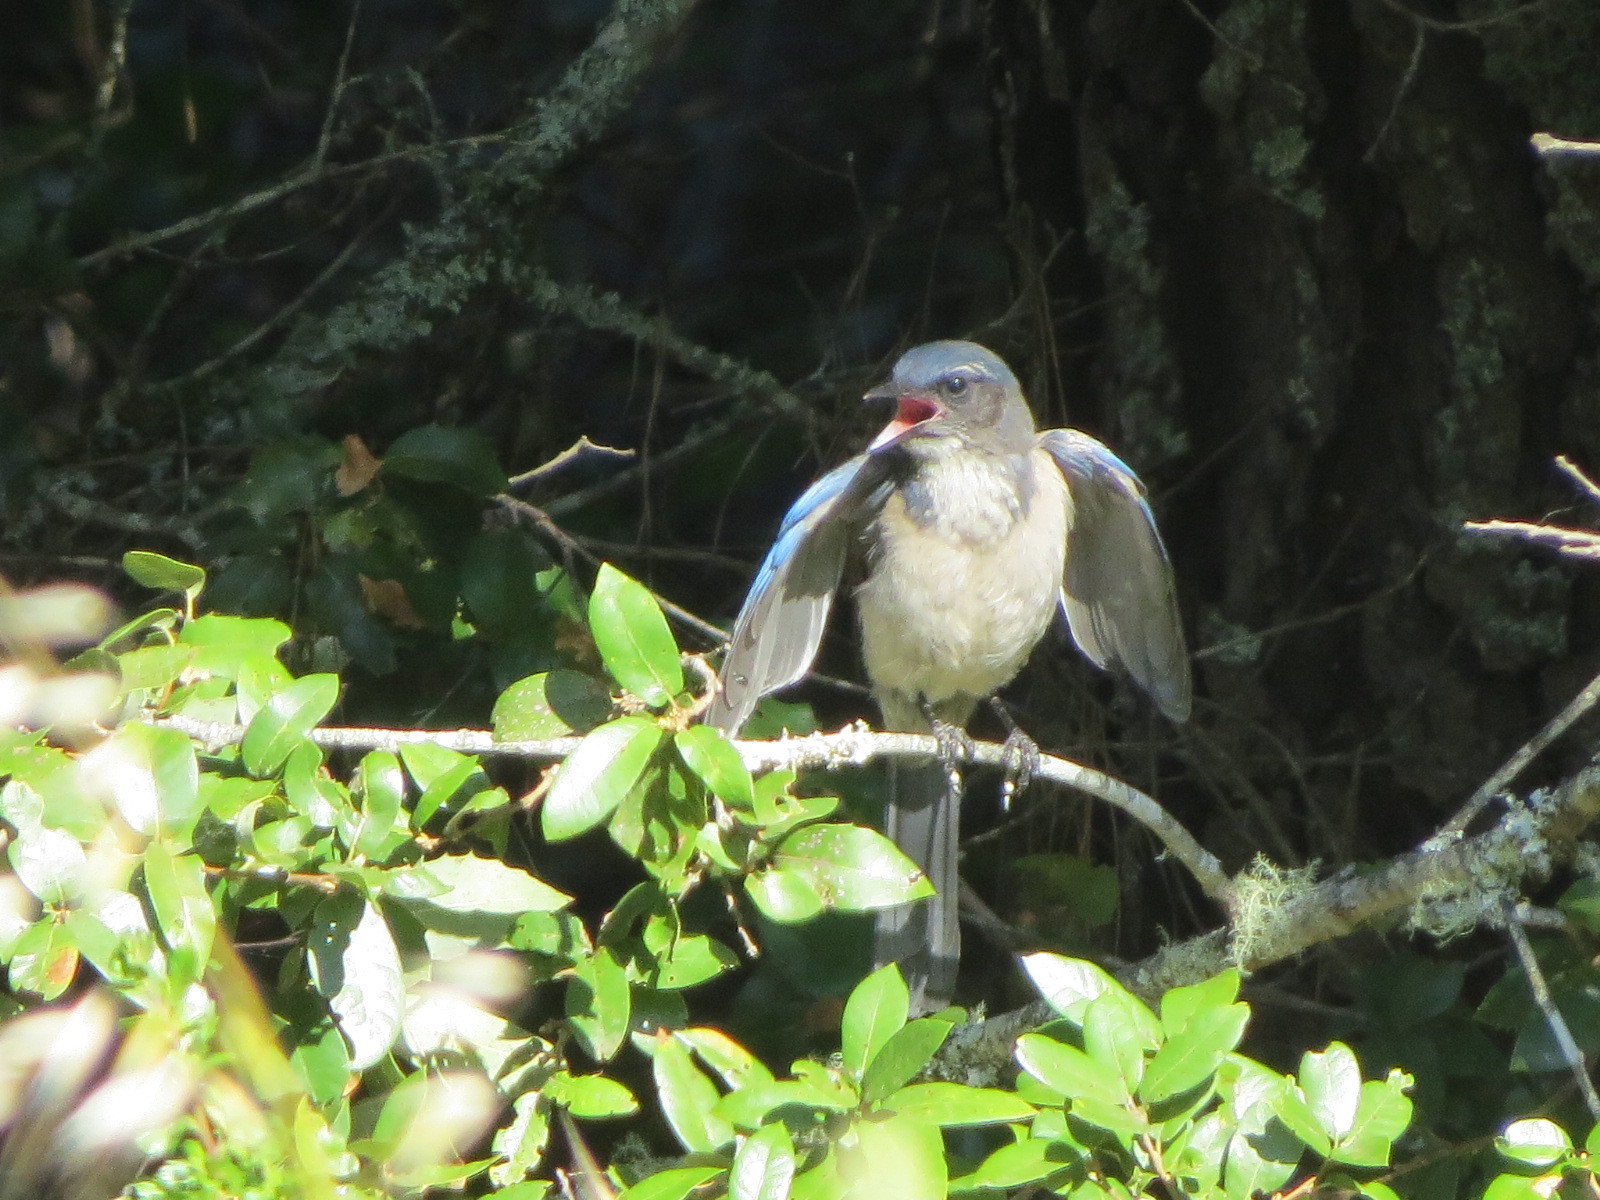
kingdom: Animalia
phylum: Chordata
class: Aves
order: Passeriformes
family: Corvidae
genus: Aphelocoma
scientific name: Aphelocoma californica
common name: California scrub-jay
